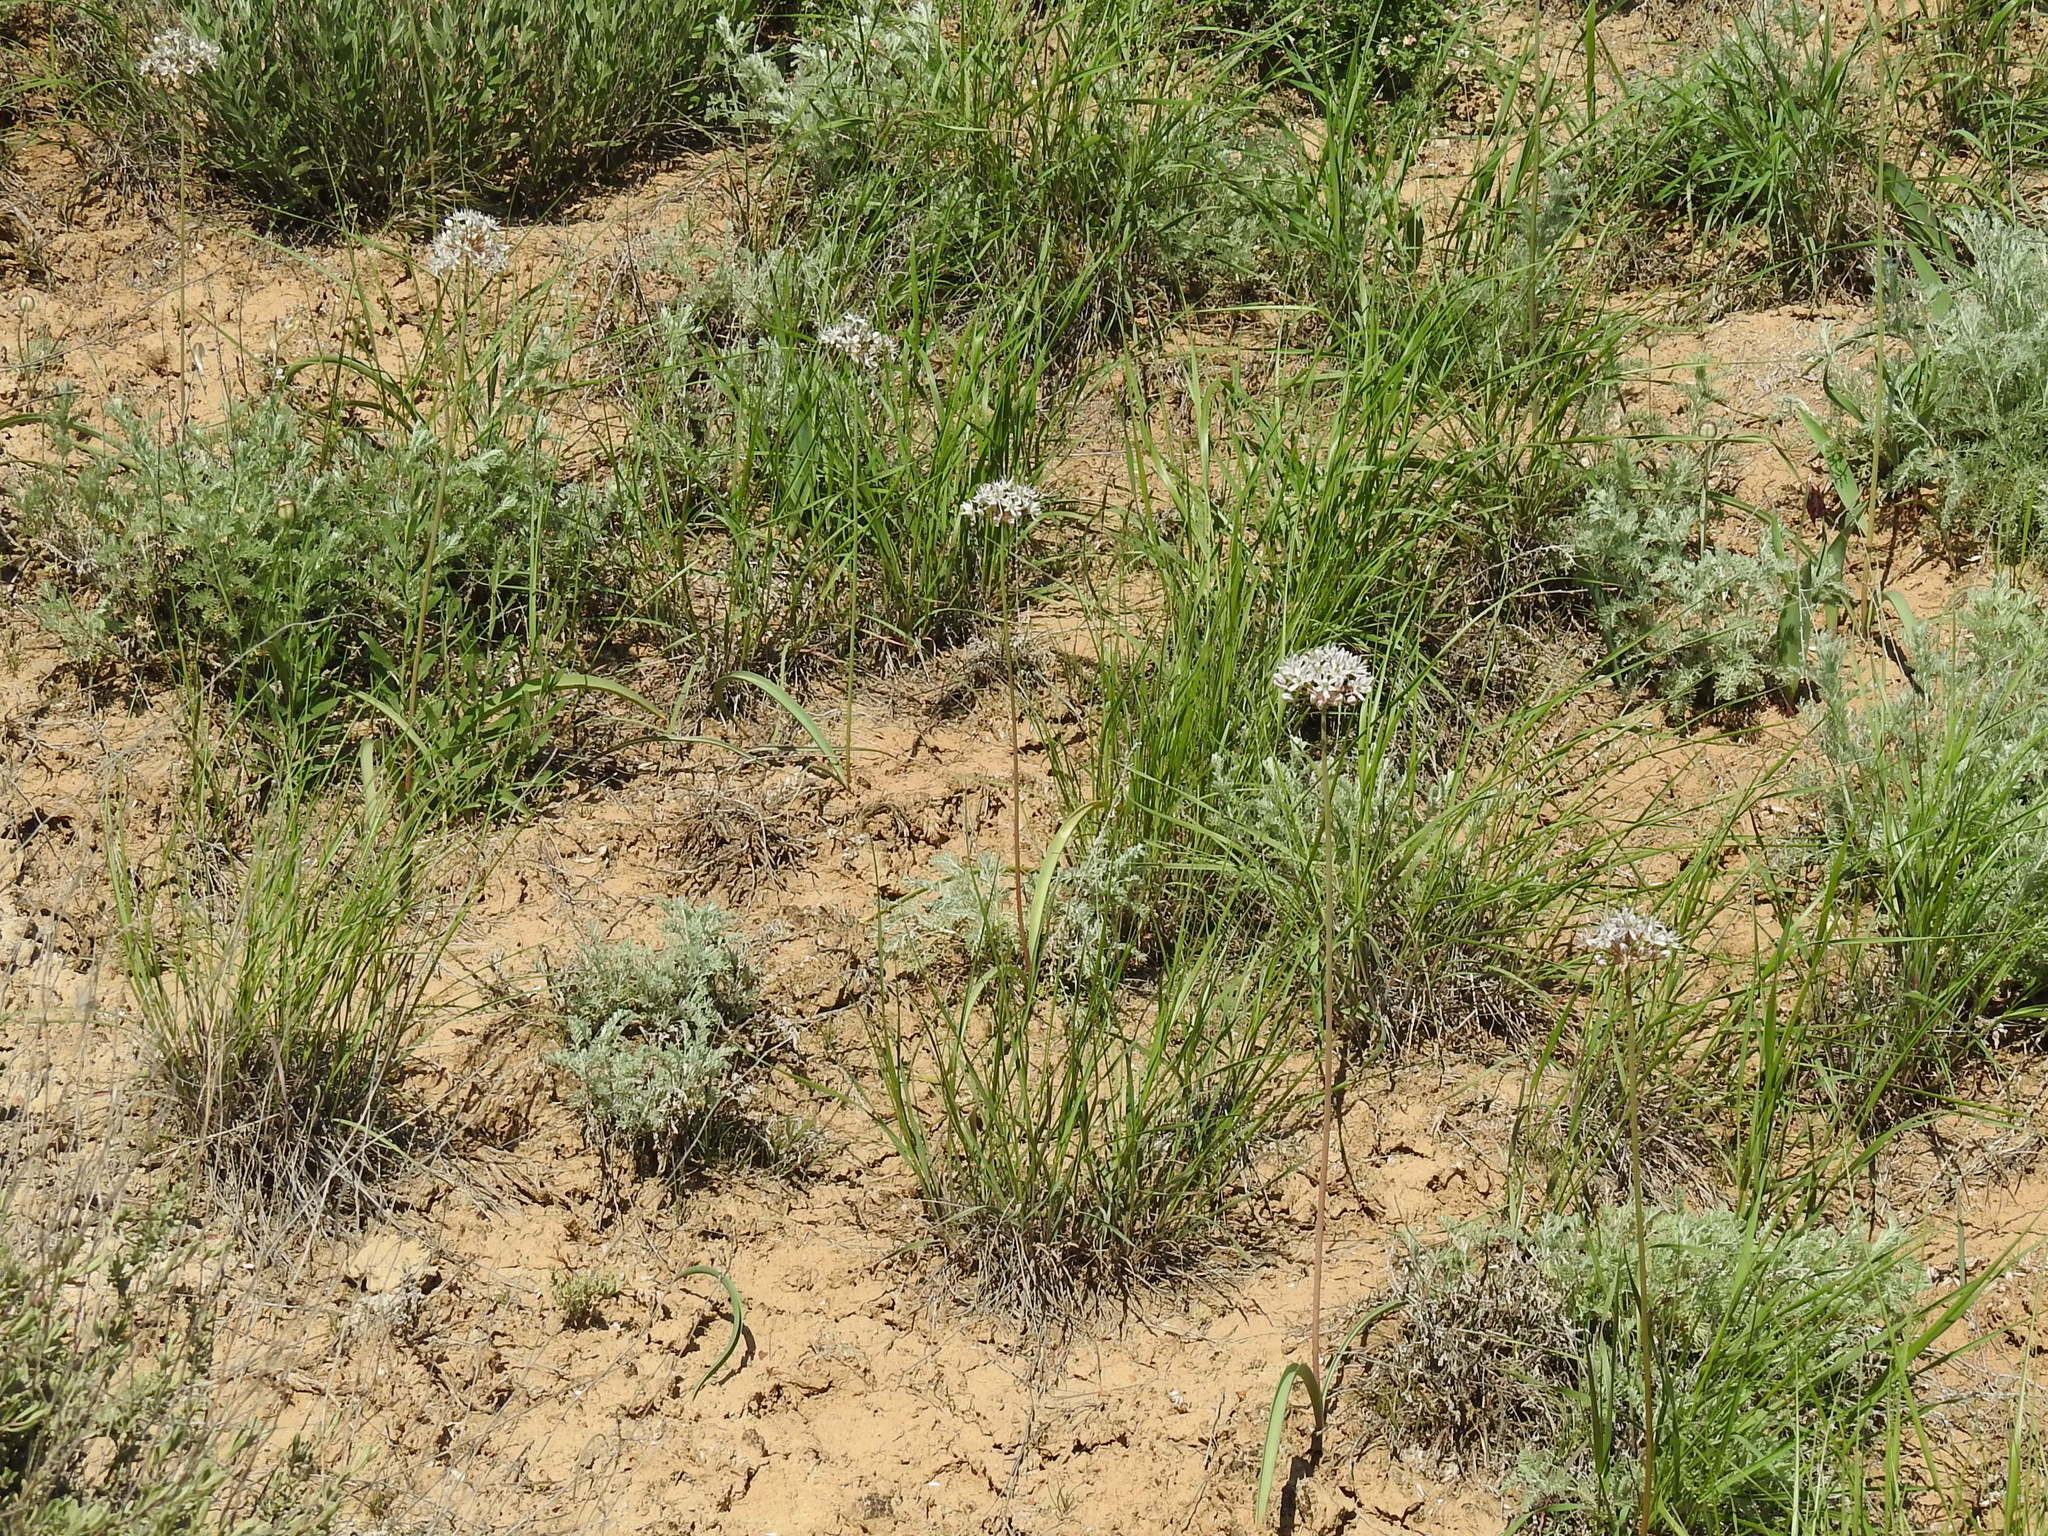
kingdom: Plantae
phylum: Tracheophyta
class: Liliopsida
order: Asparagales
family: Amaryllidaceae
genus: Allium
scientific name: Allium tulipifolium
